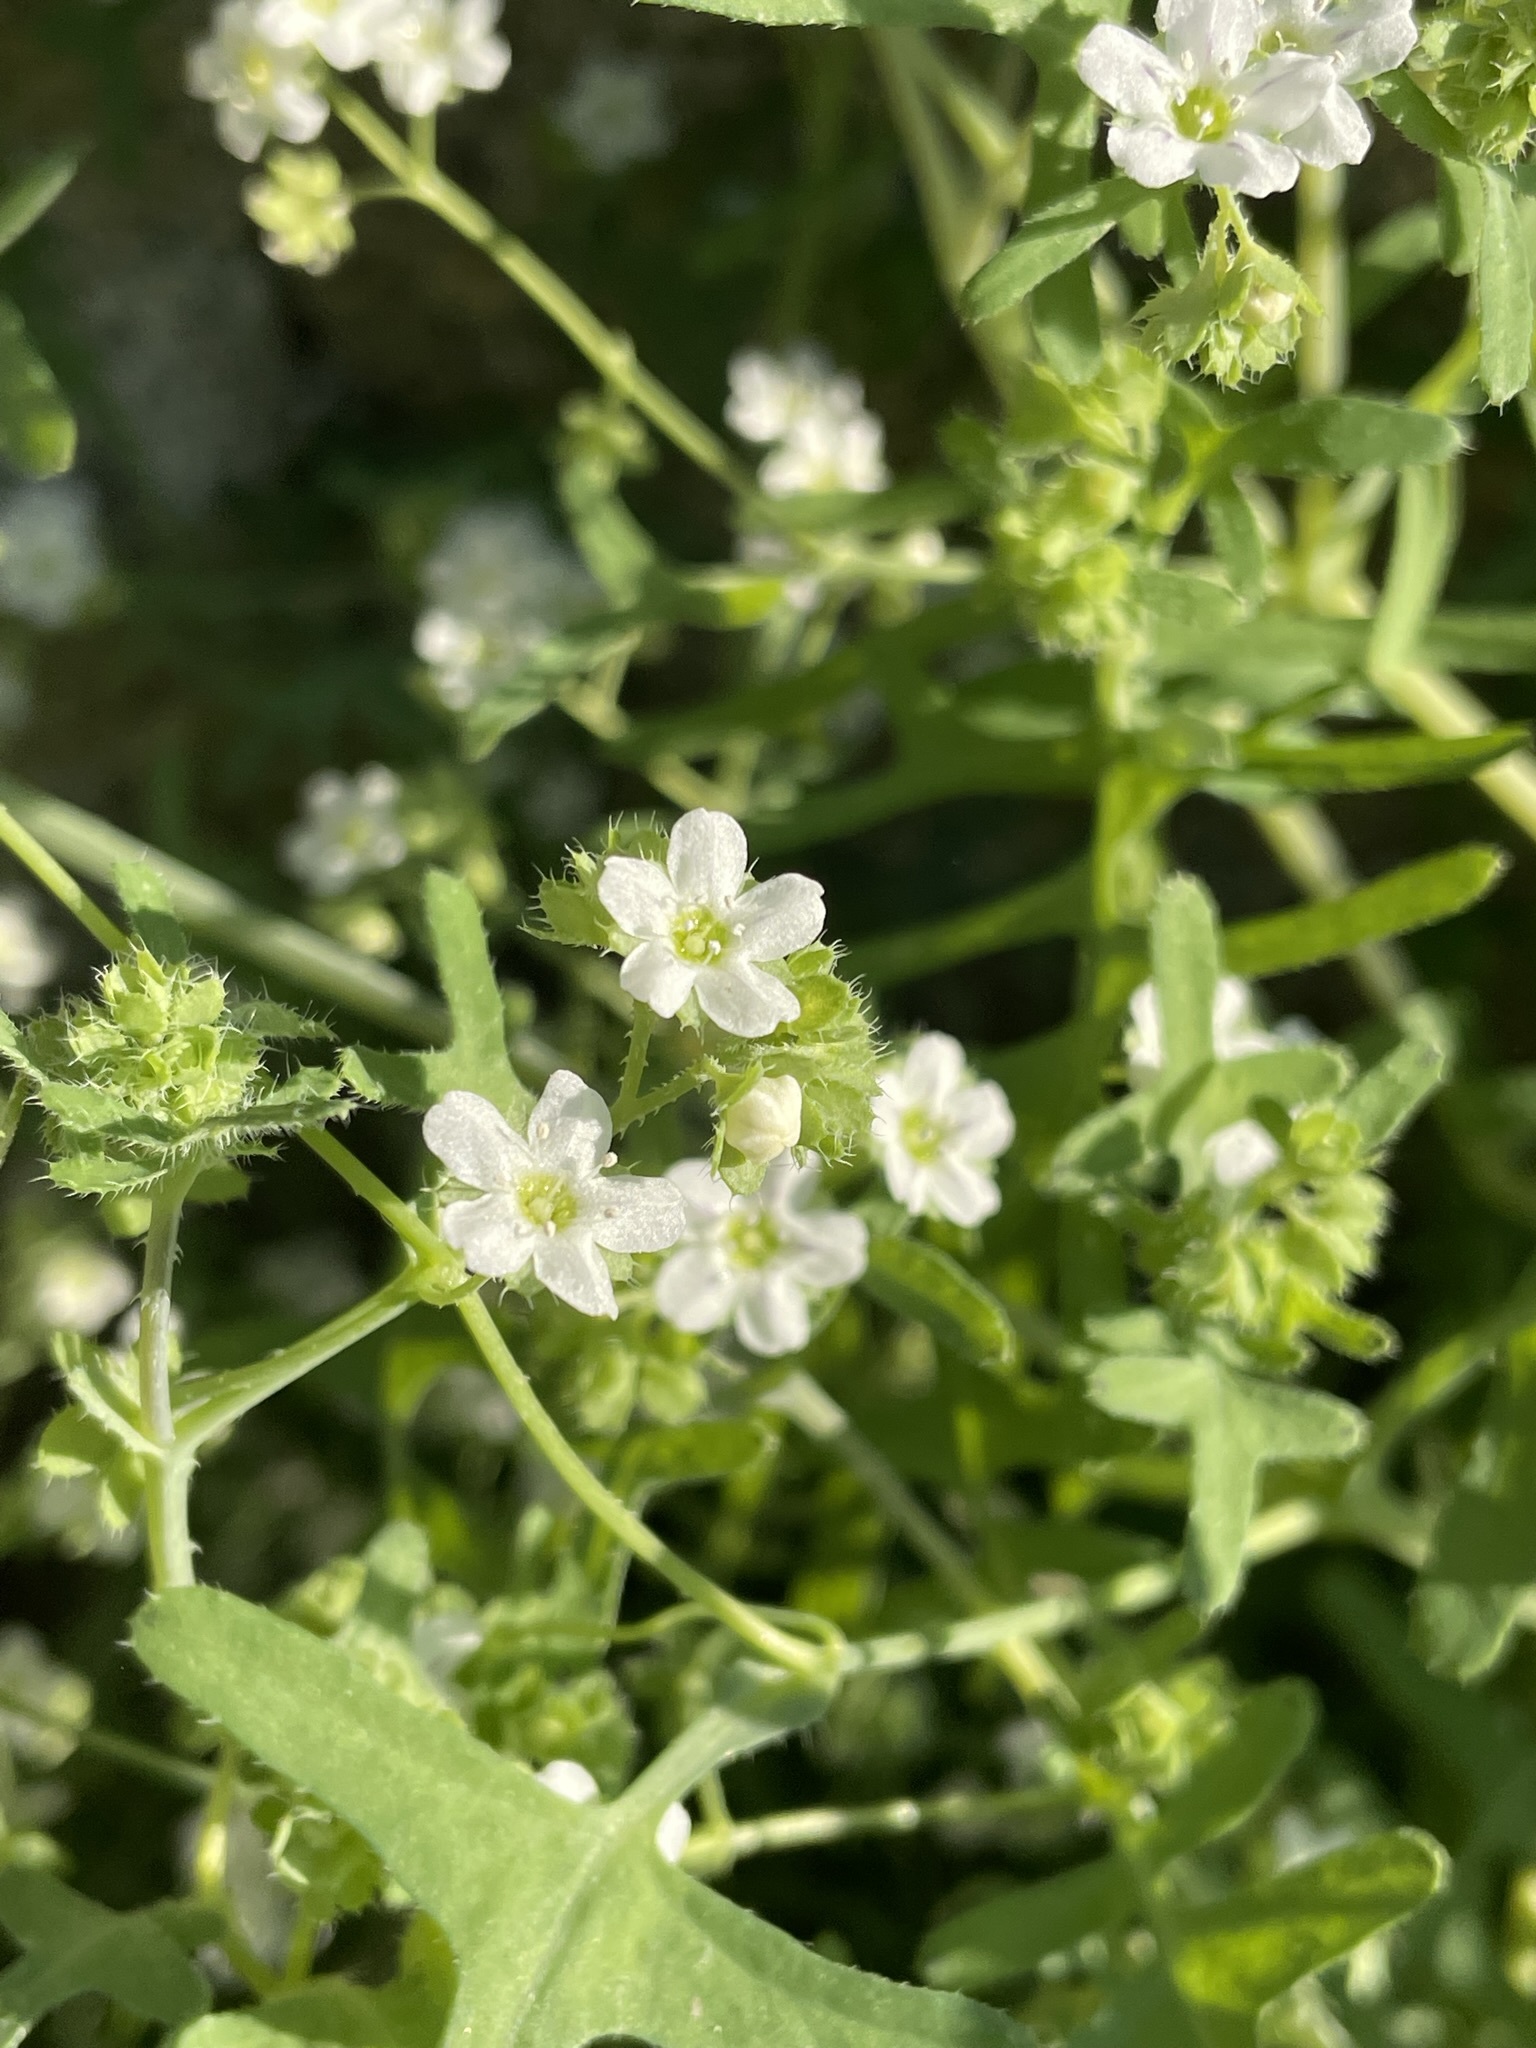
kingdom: Plantae
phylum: Tracheophyta
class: Magnoliopsida
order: Boraginales
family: Hydrophyllaceae
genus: Pholistoma
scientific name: Pholistoma membranaceum
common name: White fiesta-flower
